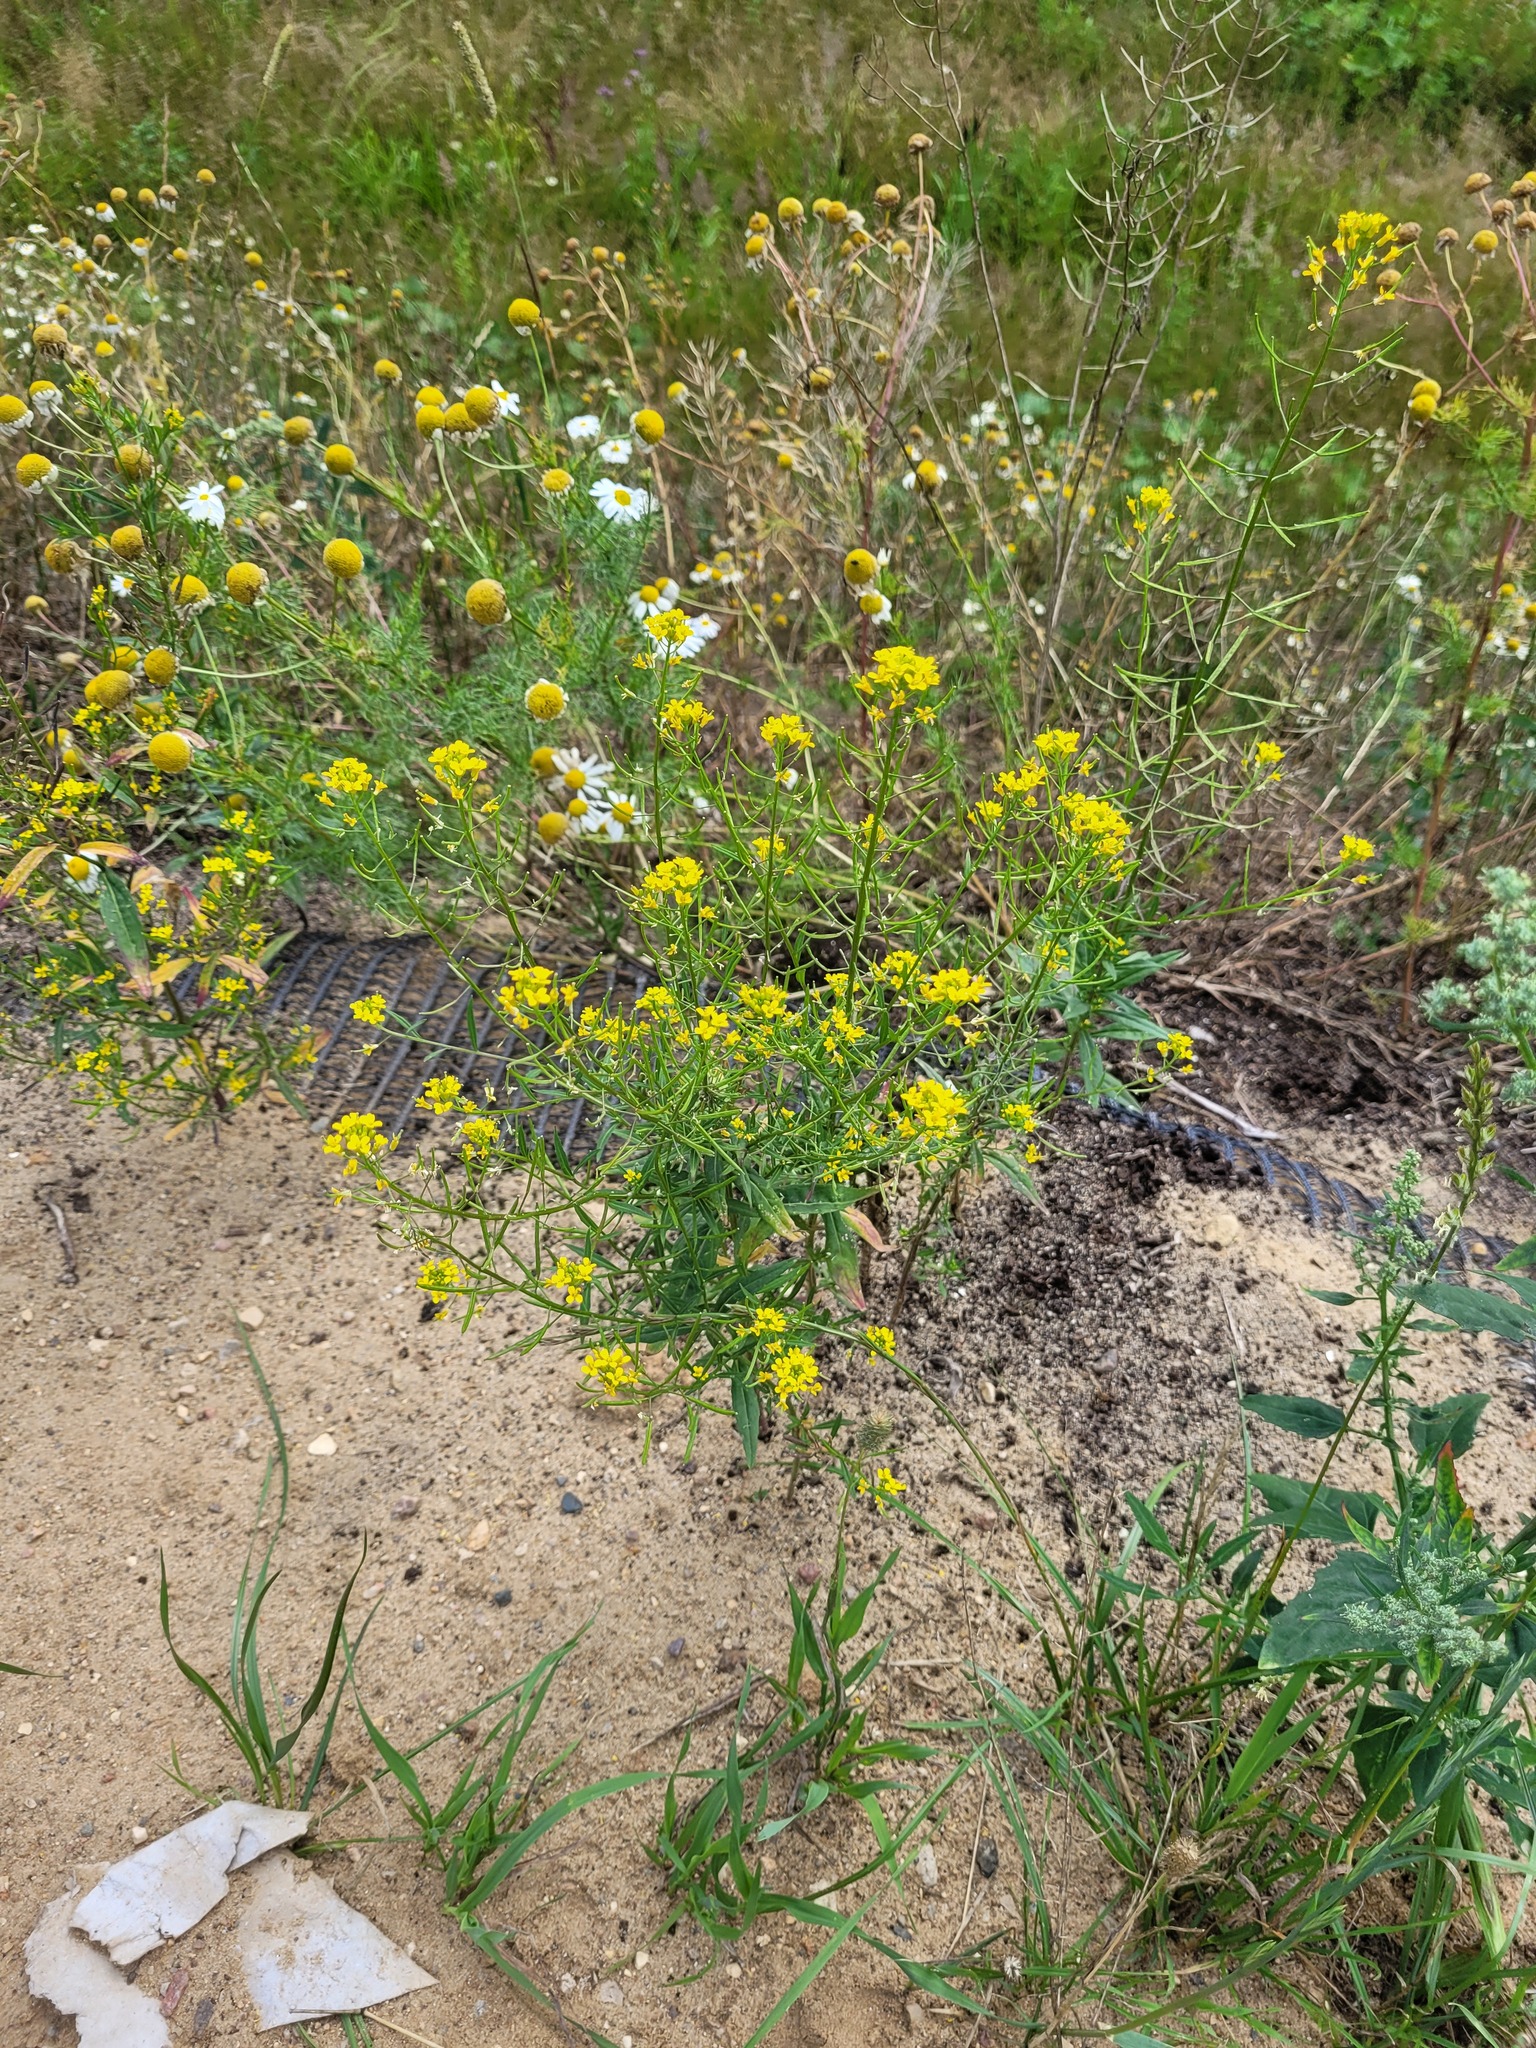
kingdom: Plantae
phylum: Tracheophyta
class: Magnoliopsida
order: Brassicales
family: Brassicaceae
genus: Erysimum
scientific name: Erysimum cheiranthoides
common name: Treacle mustard
